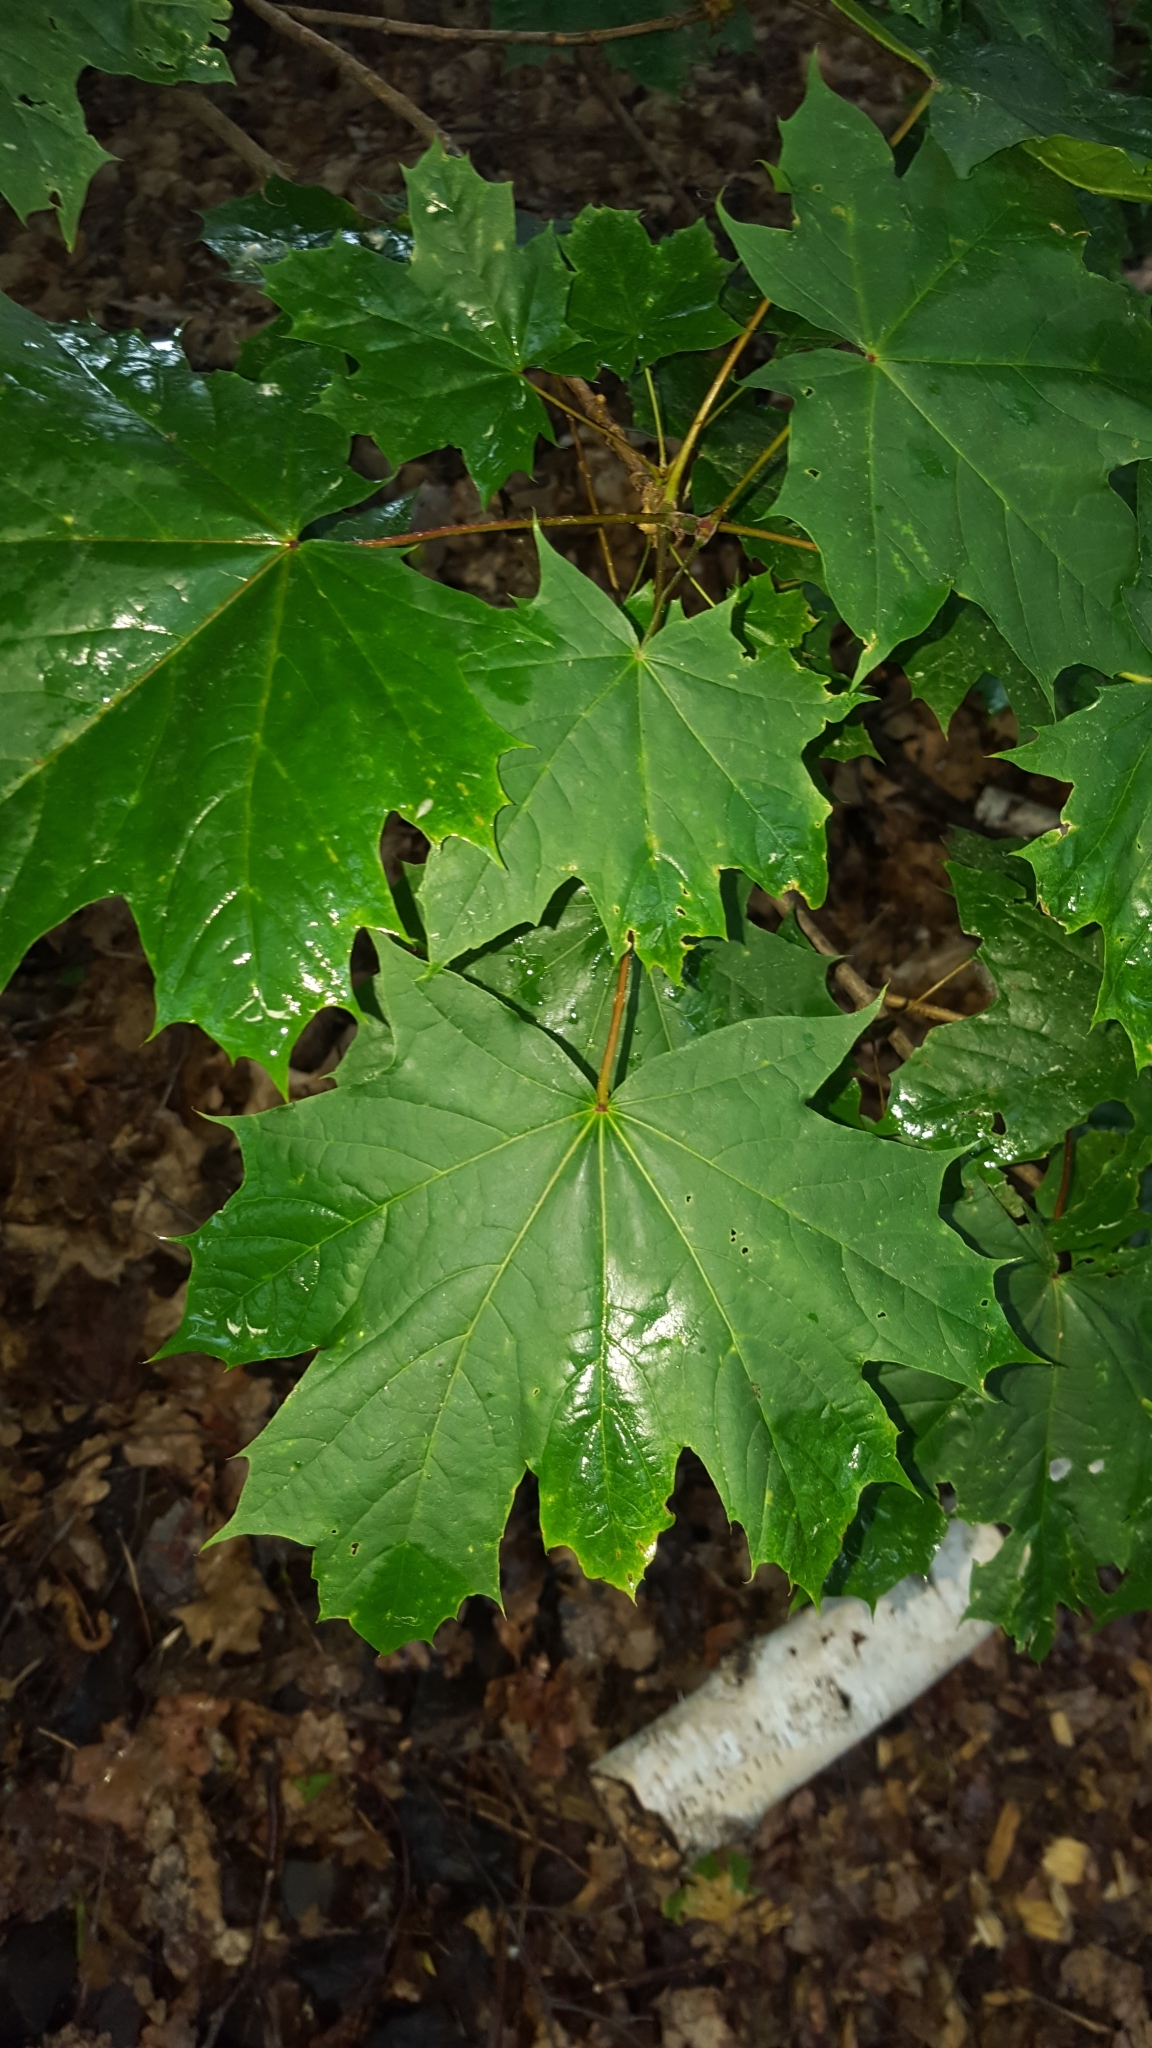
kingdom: Plantae
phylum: Tracheophyta
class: Magnoliopsida
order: Sapindales
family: Sapindaceae
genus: Acer
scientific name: Acer platanoides
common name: Norway maple
